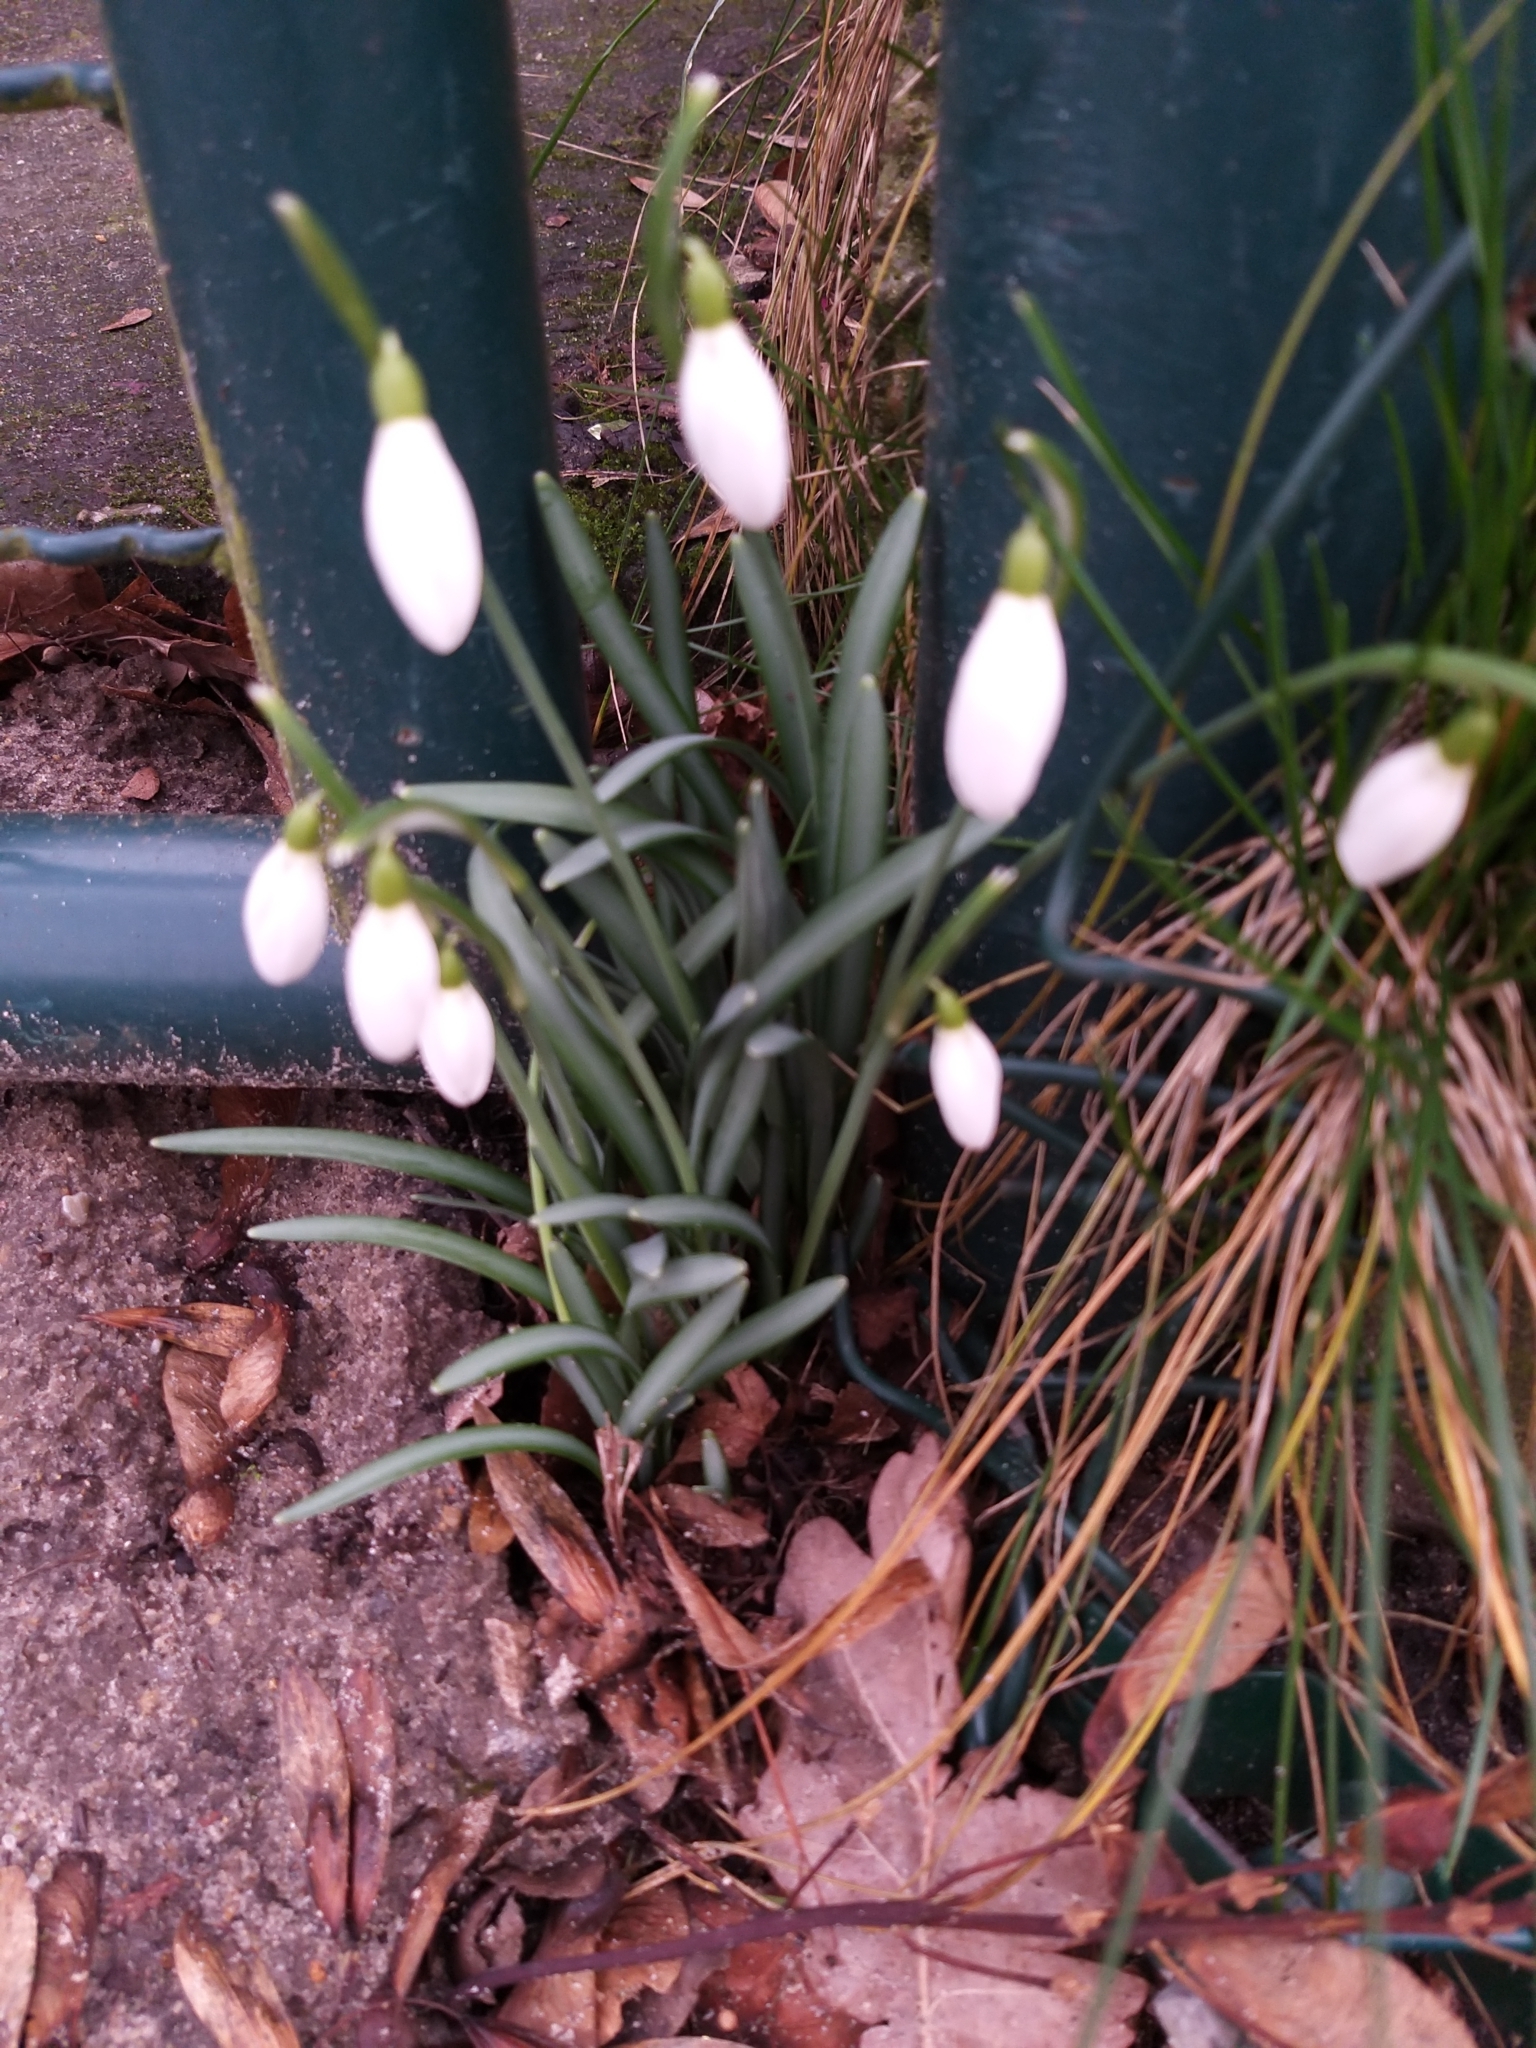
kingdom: Plantae
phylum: Tracheophyta
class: Liliopsida
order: Asparagales
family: Amaryllidaceae
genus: Galanthus
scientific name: Galanthus nivalis
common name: Snowdrop
